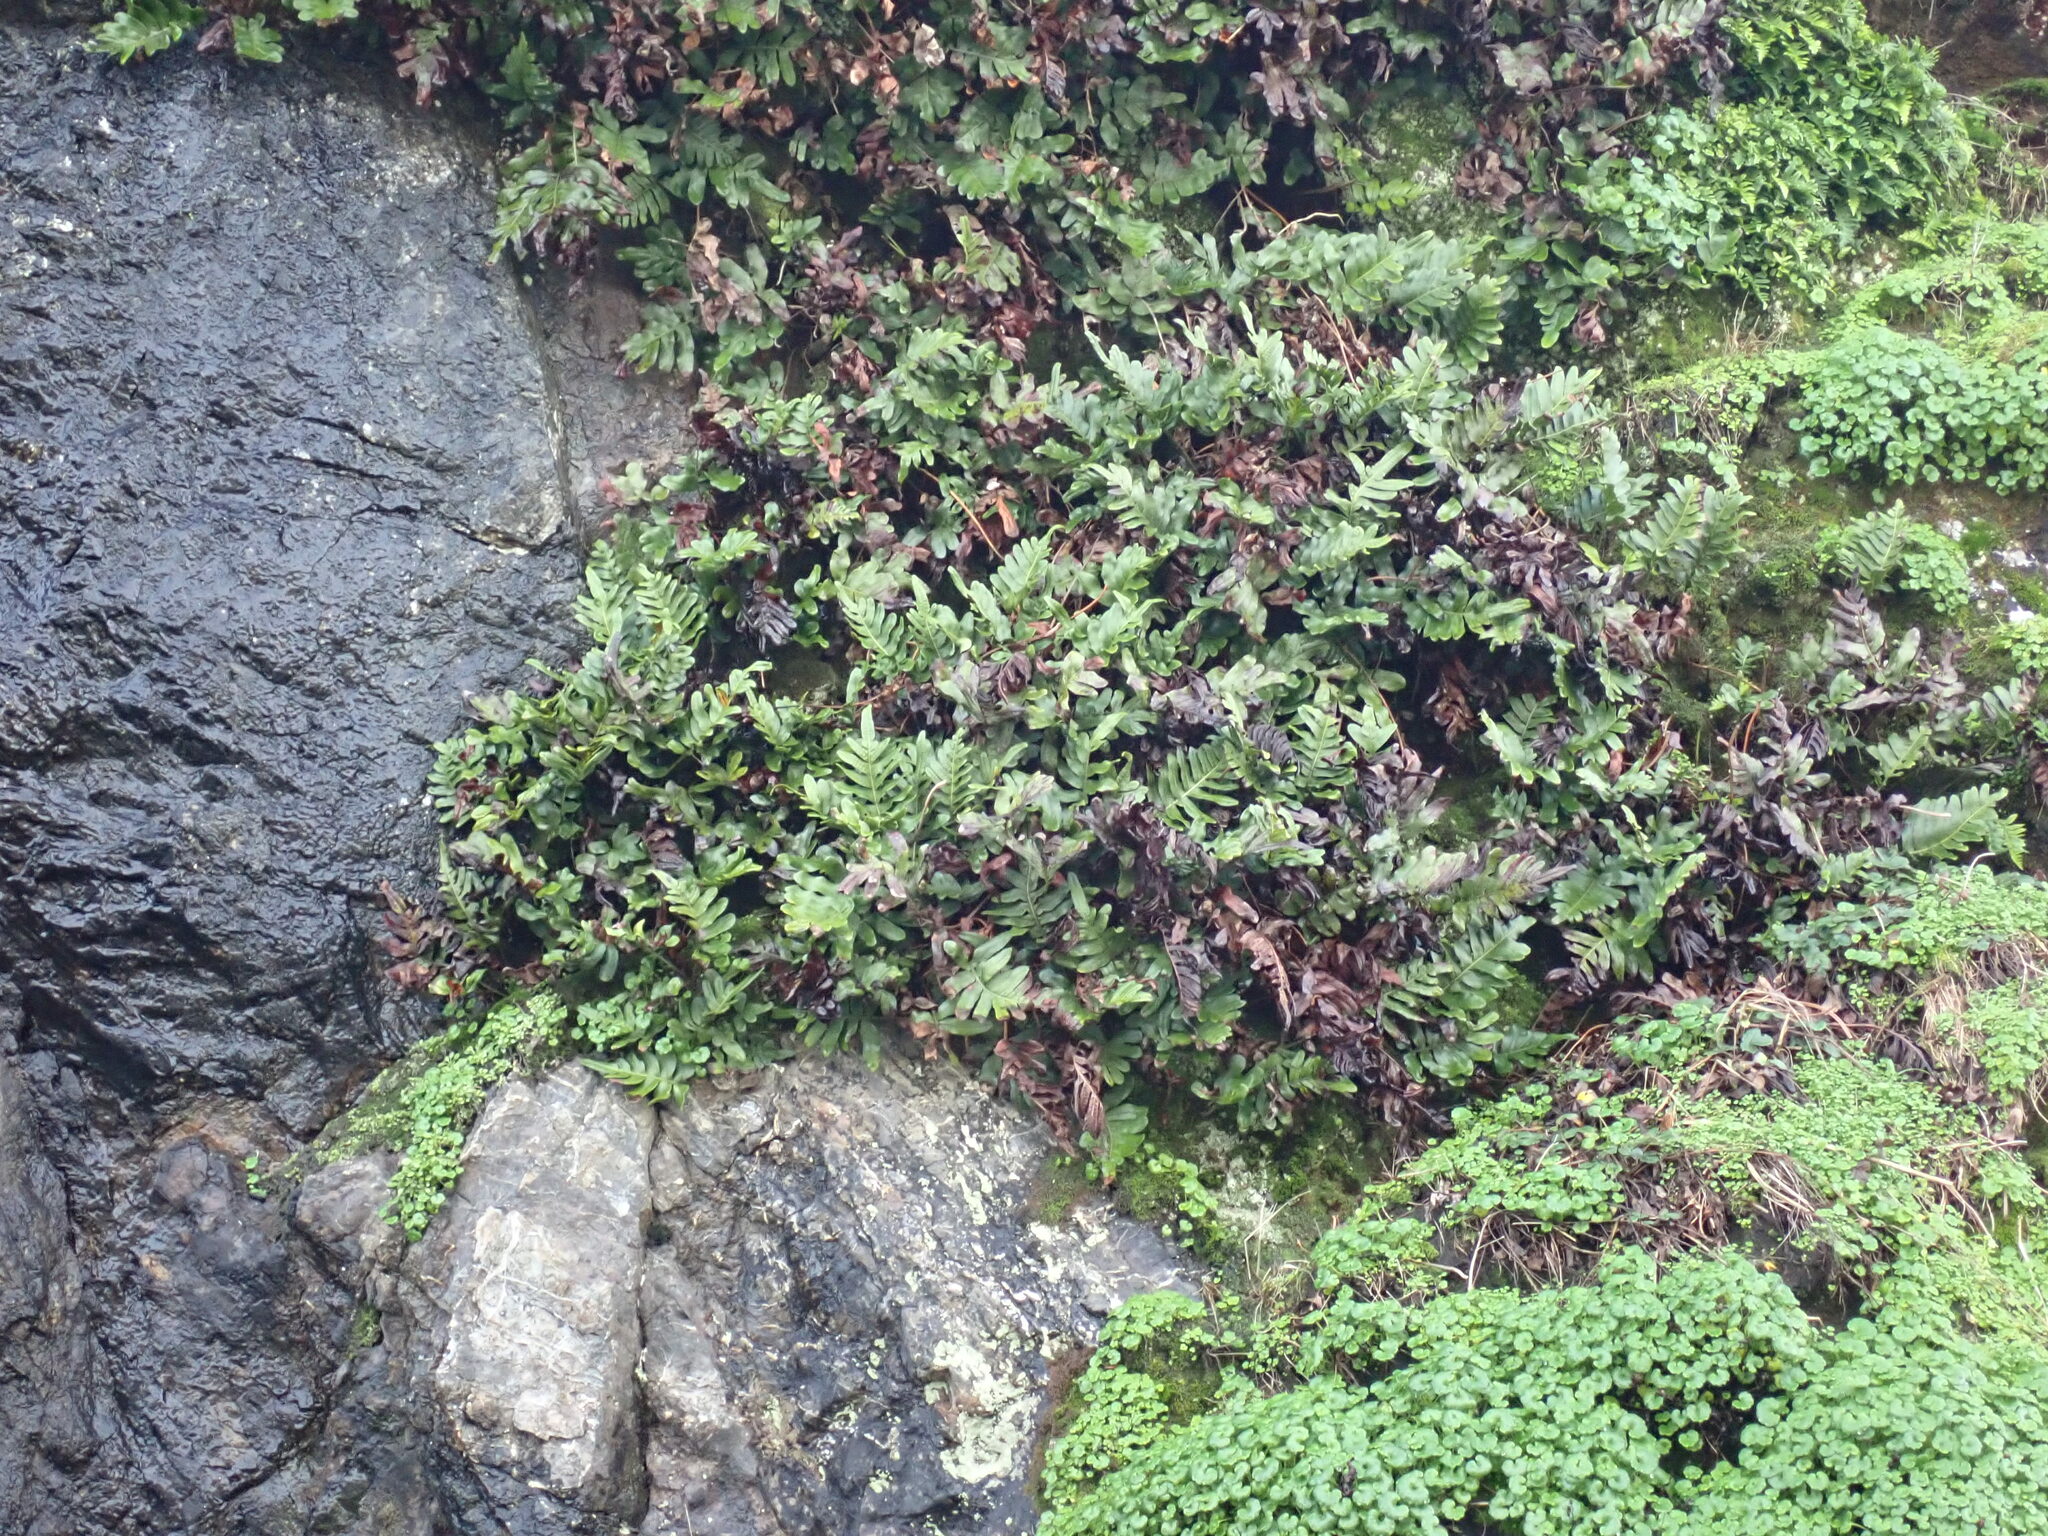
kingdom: Plantae
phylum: Tracheophyta
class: Polypodiopsida
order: Polypodiales
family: Polypodiaceae
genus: Polypodium
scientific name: Polypodium scouleri
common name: Scouler's polypody
